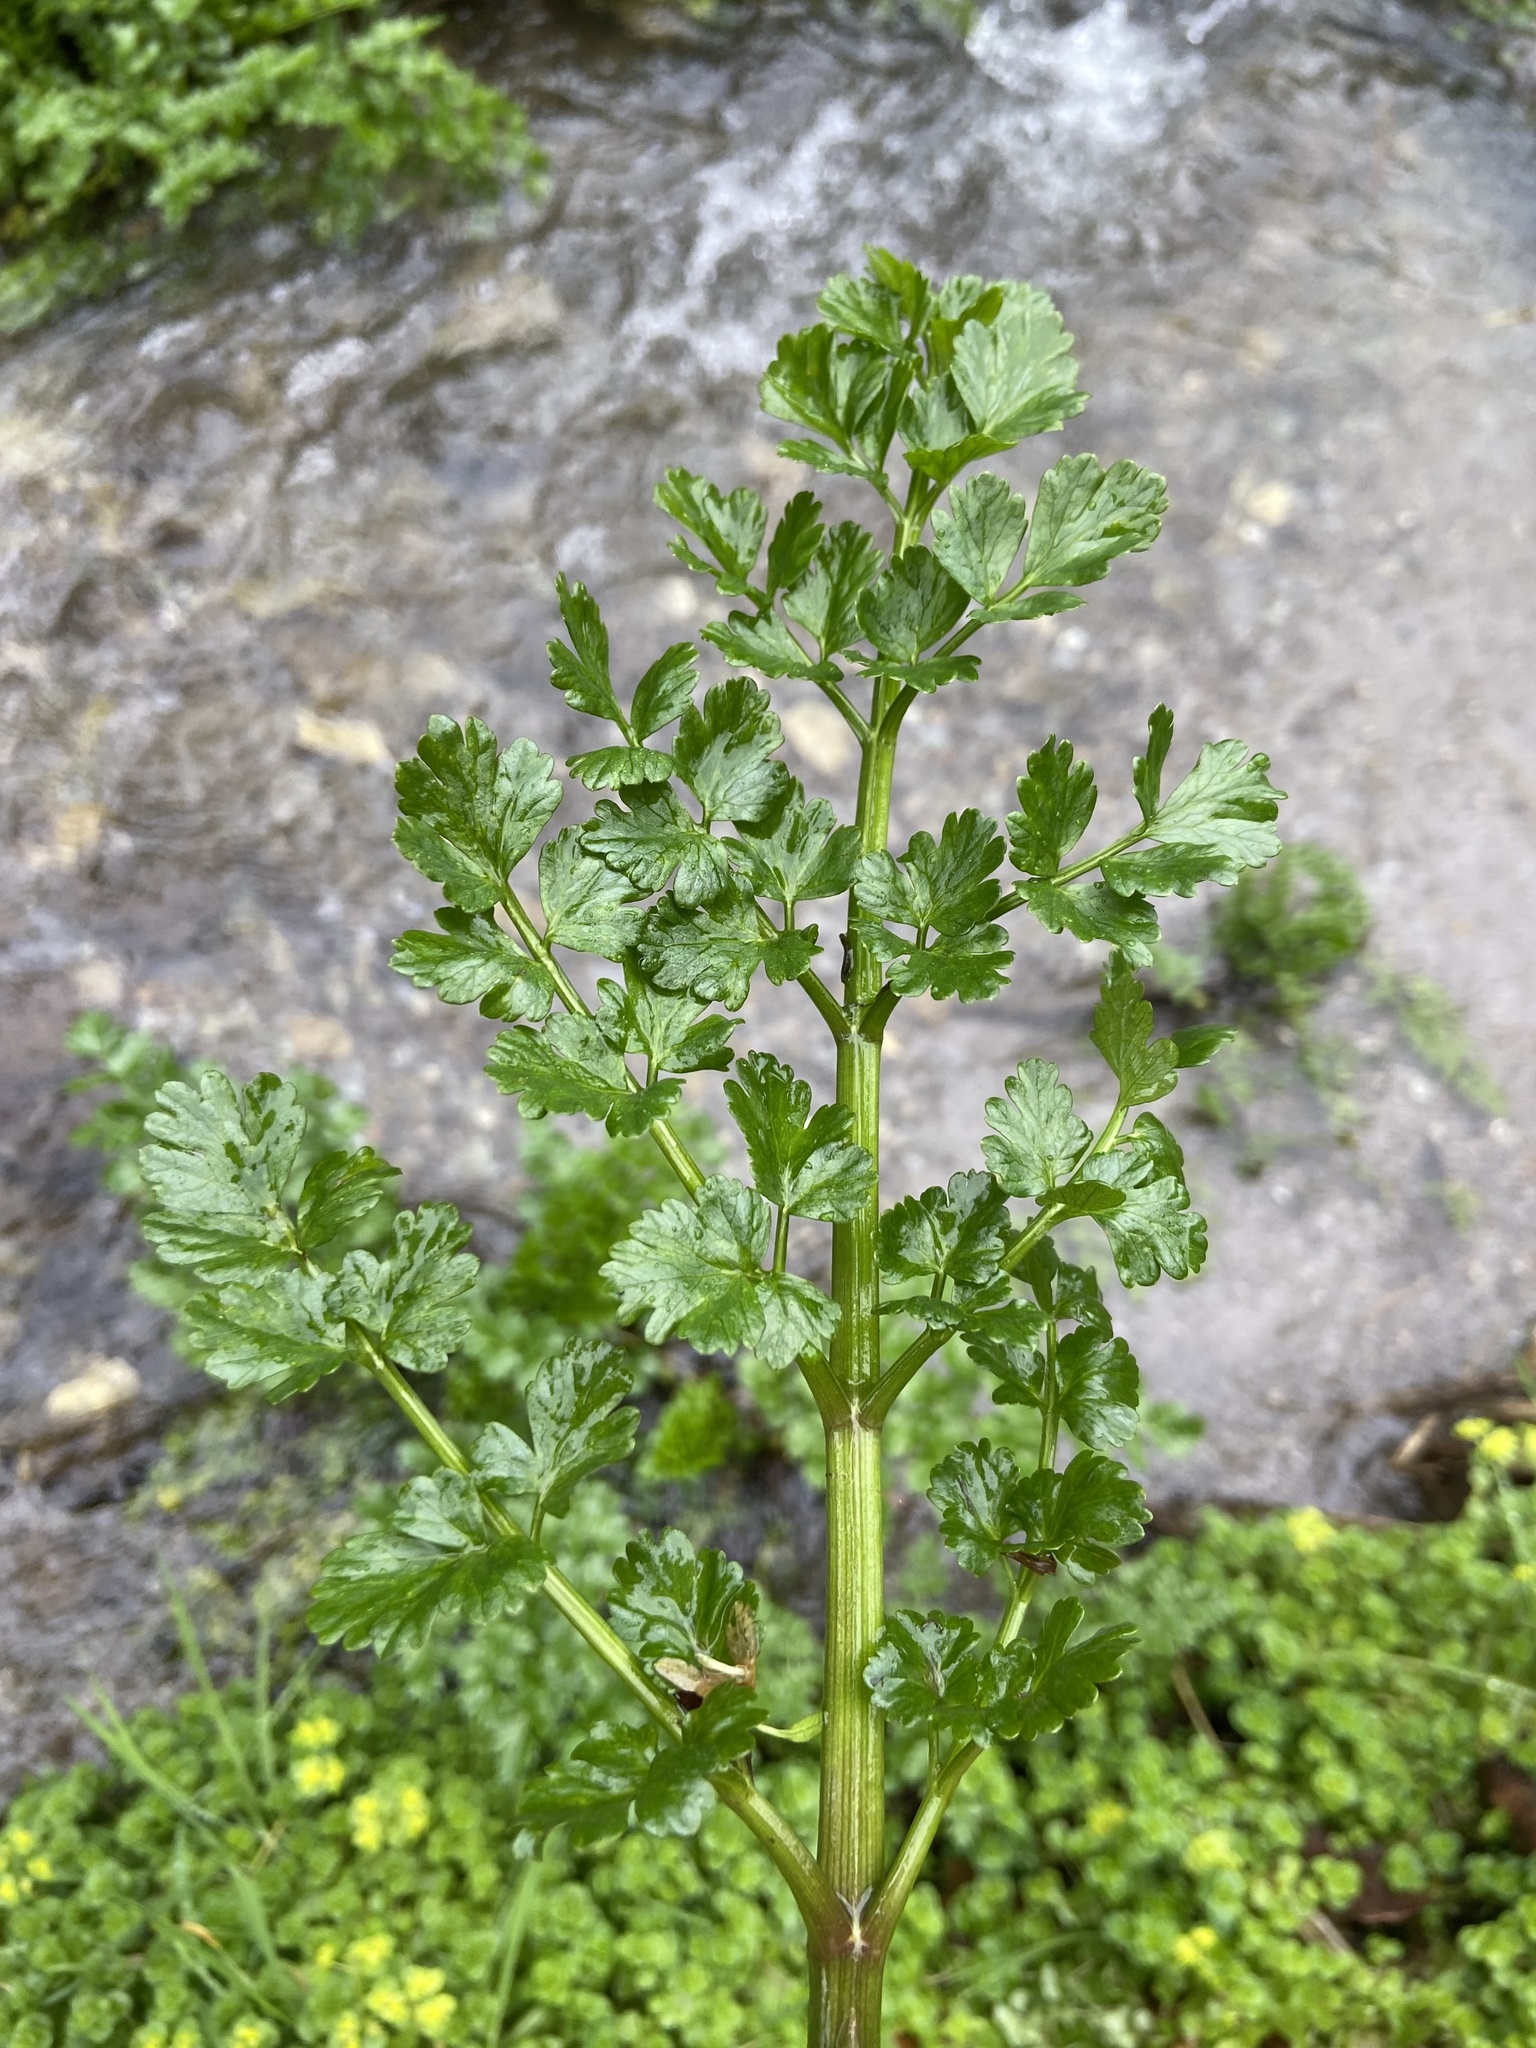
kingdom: Plantae
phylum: Tracheophyta
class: Magnoliopsida
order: Apiales
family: Apiaceae
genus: Oenanthe
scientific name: Oenanthe crocata
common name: Hemlock water-dropwort
